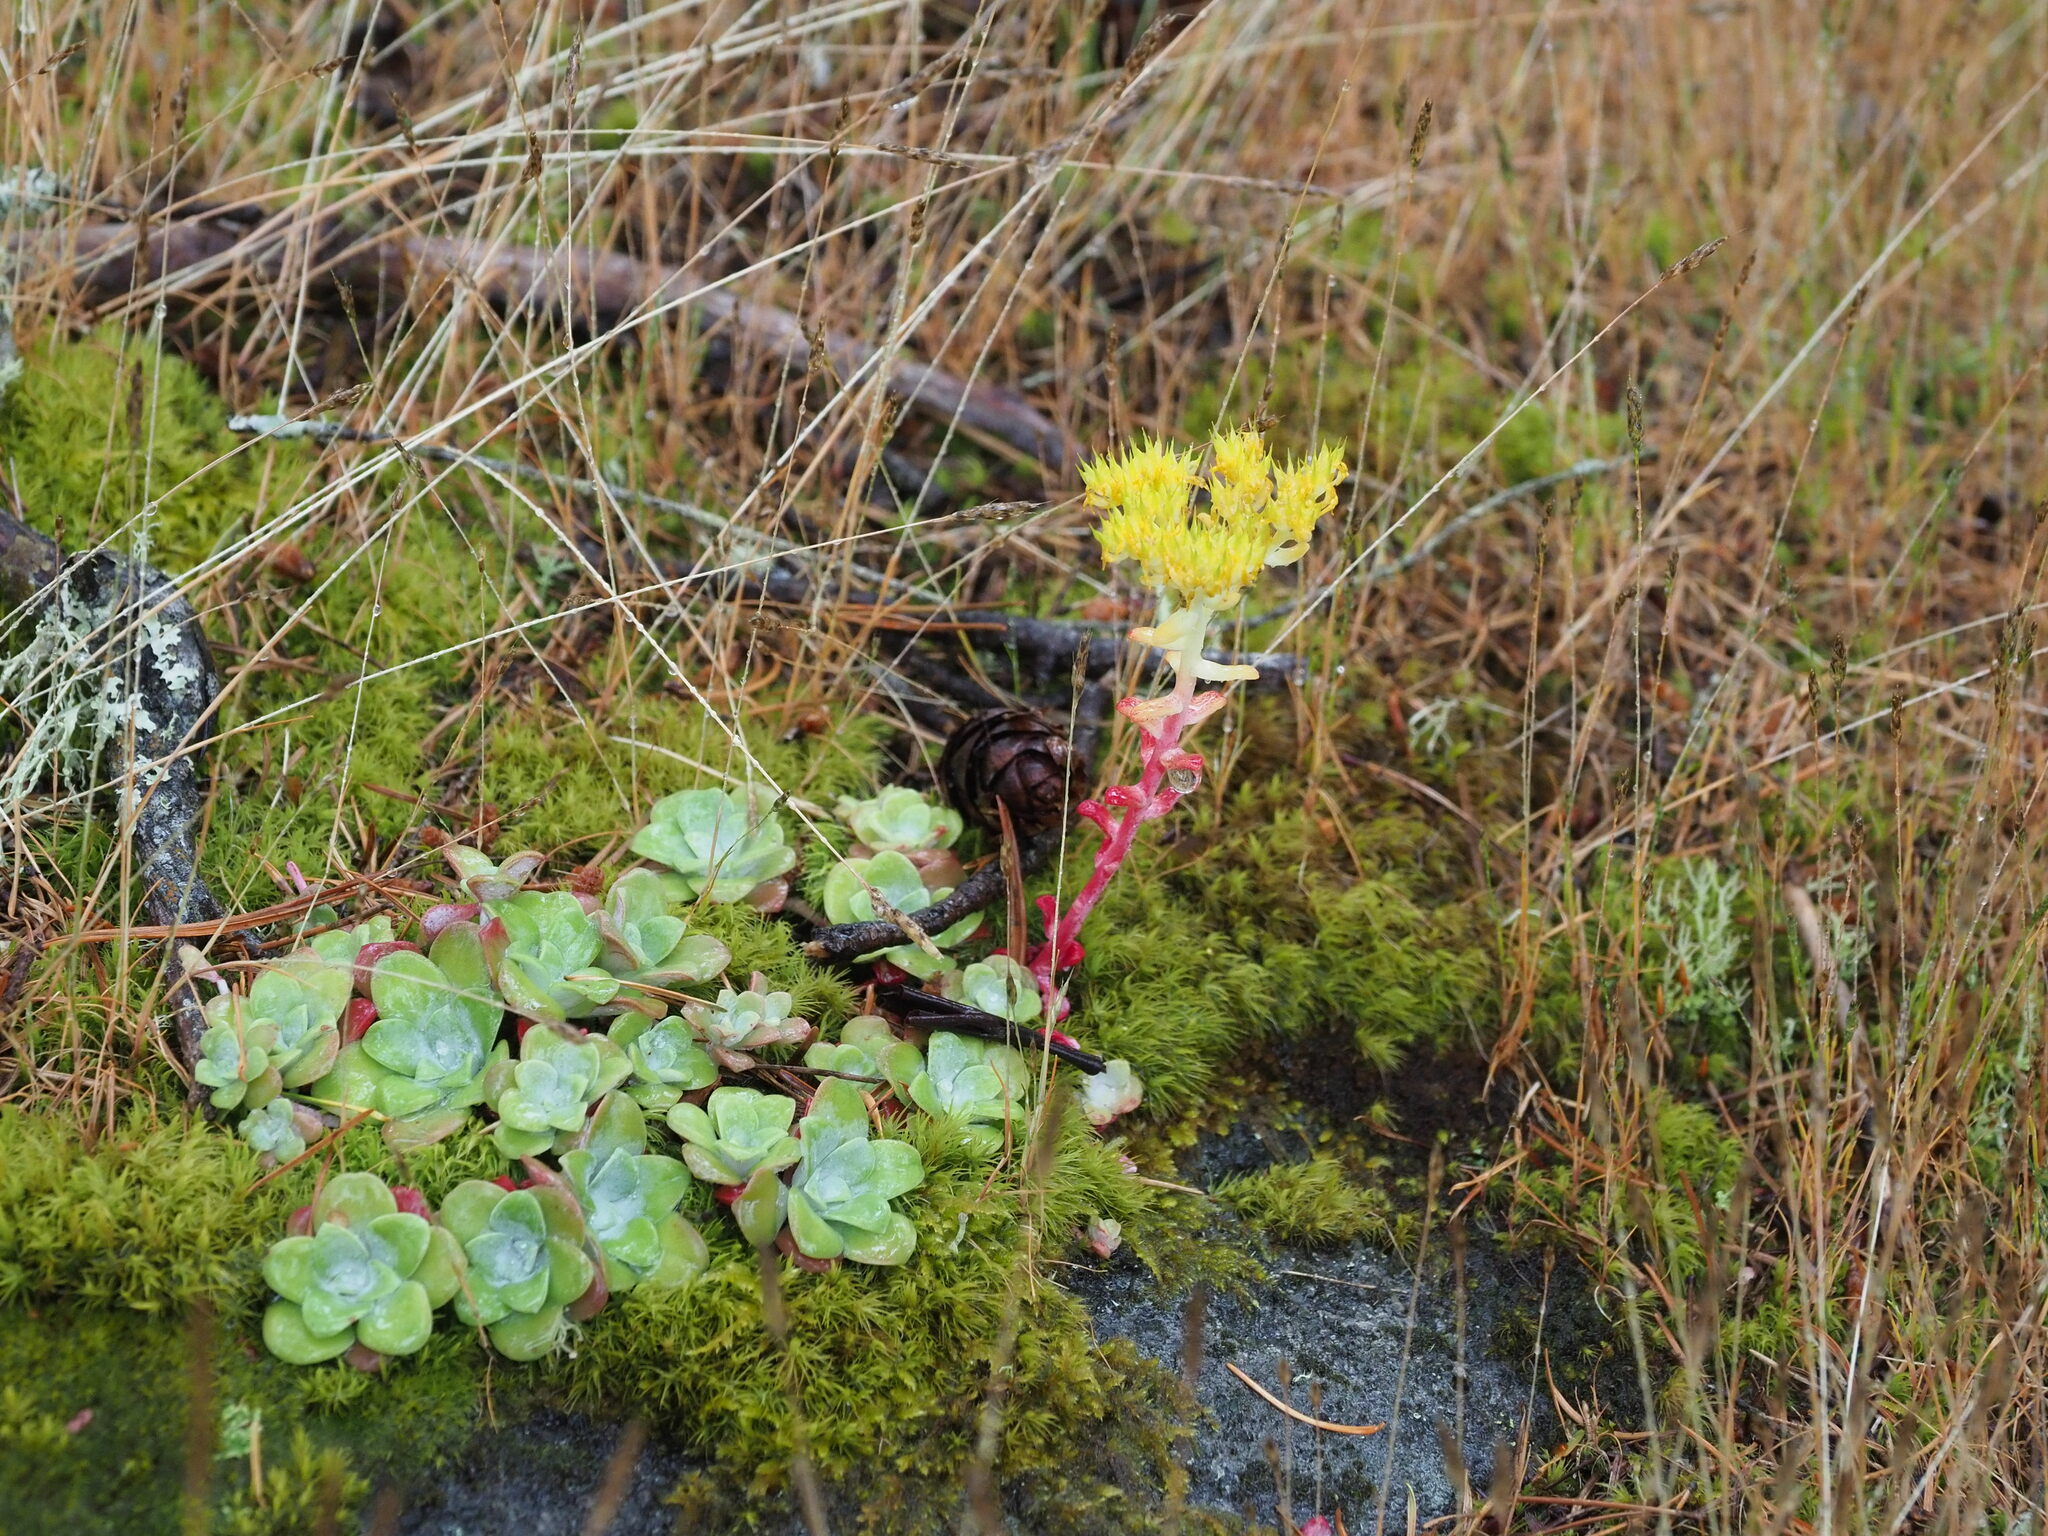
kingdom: Plantae
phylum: Tracheophyta
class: Magnoliopsida
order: Saxifragales
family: Crassulaceae
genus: Sedum
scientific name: Sedum spathulifolium
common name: Colorado stonecrop
